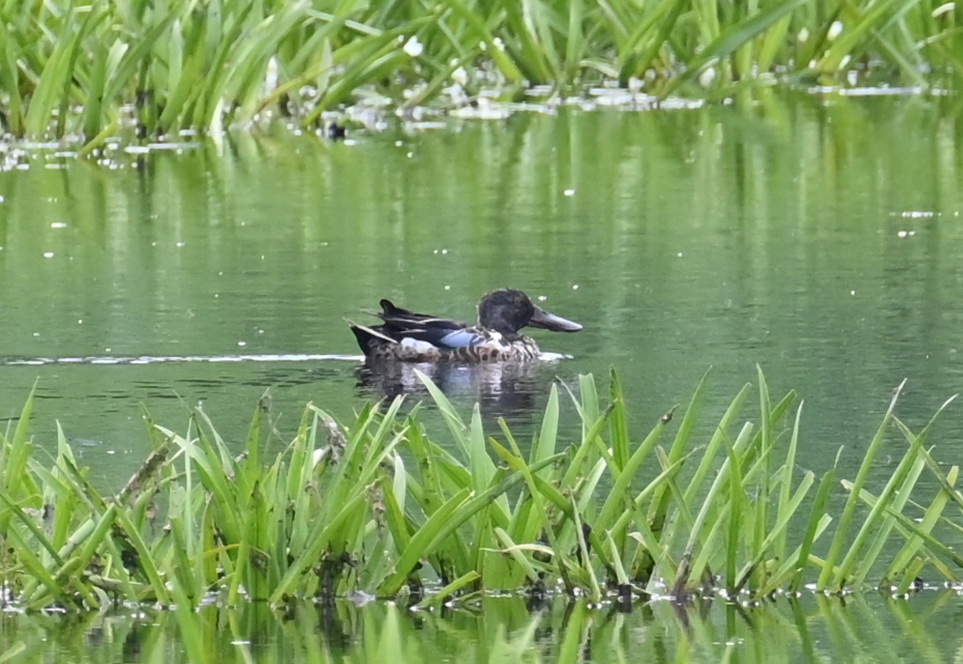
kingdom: Animalia
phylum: Chordata
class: Aves
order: Anseriformes
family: Anatidae
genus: Spatula
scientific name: Spatula clypeata
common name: Northern shoveler
